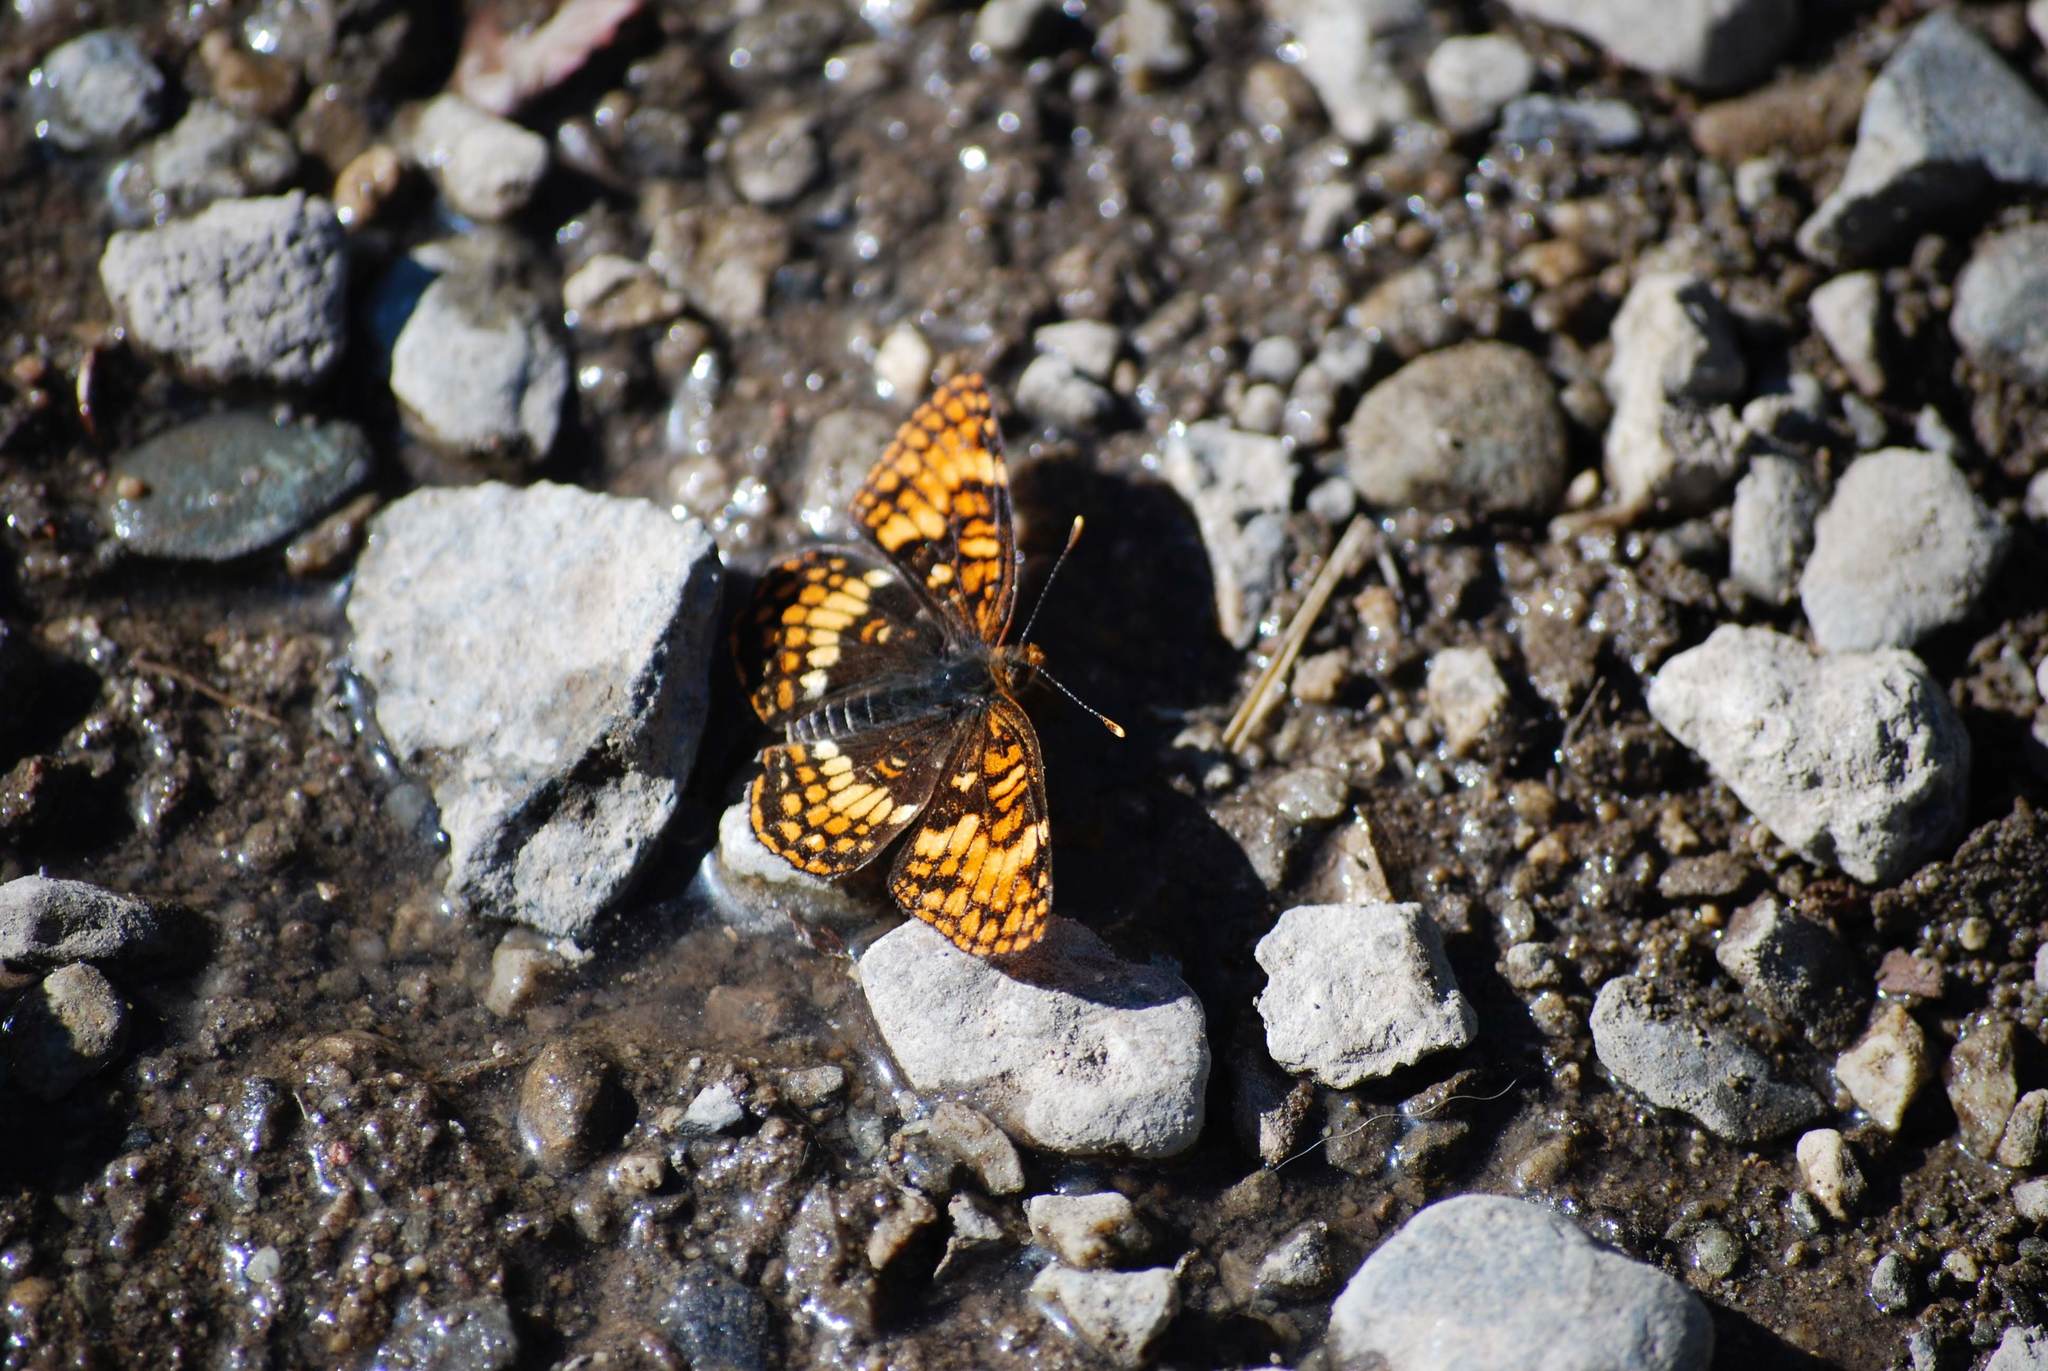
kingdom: Animalia
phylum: Arthropoda
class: Insecta
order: Lepidoptera
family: Nymphalidae
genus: Chlosyne
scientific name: Chlosyne hoffmanni
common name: Hoffmann's checkerspot
